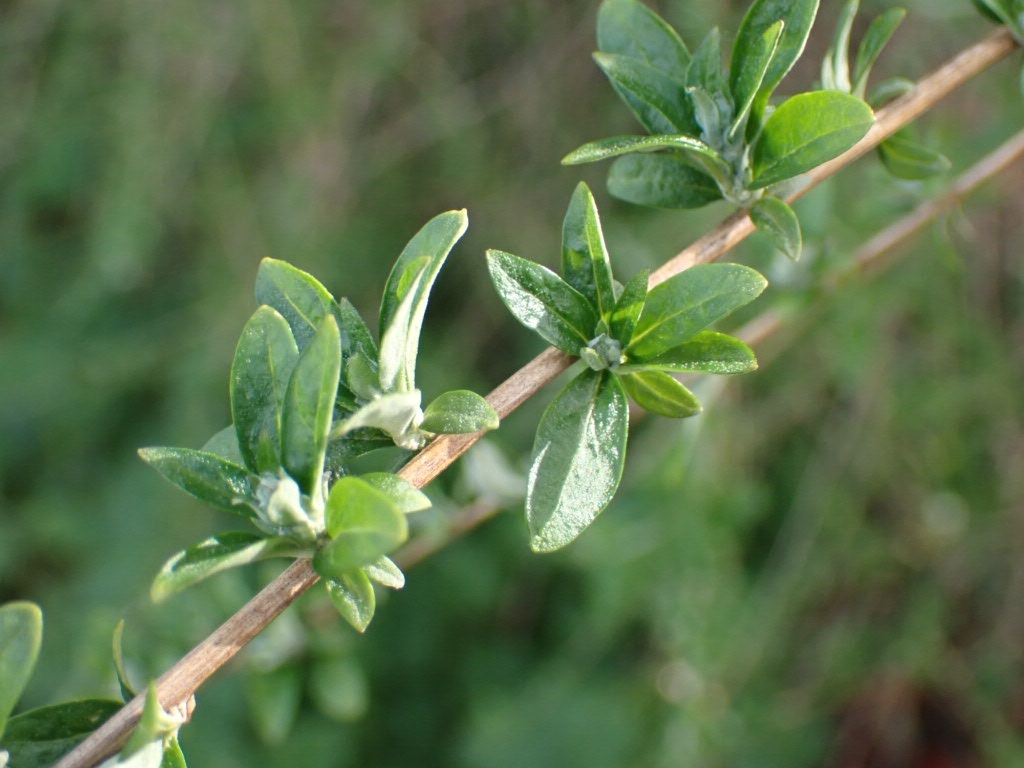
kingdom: Plantae
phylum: Tracheophyta
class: Magnoliopsida
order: Lamiales
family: Scrophulariaceae
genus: Buddleja
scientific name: Buddleja davidii
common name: Butterfly-bush
